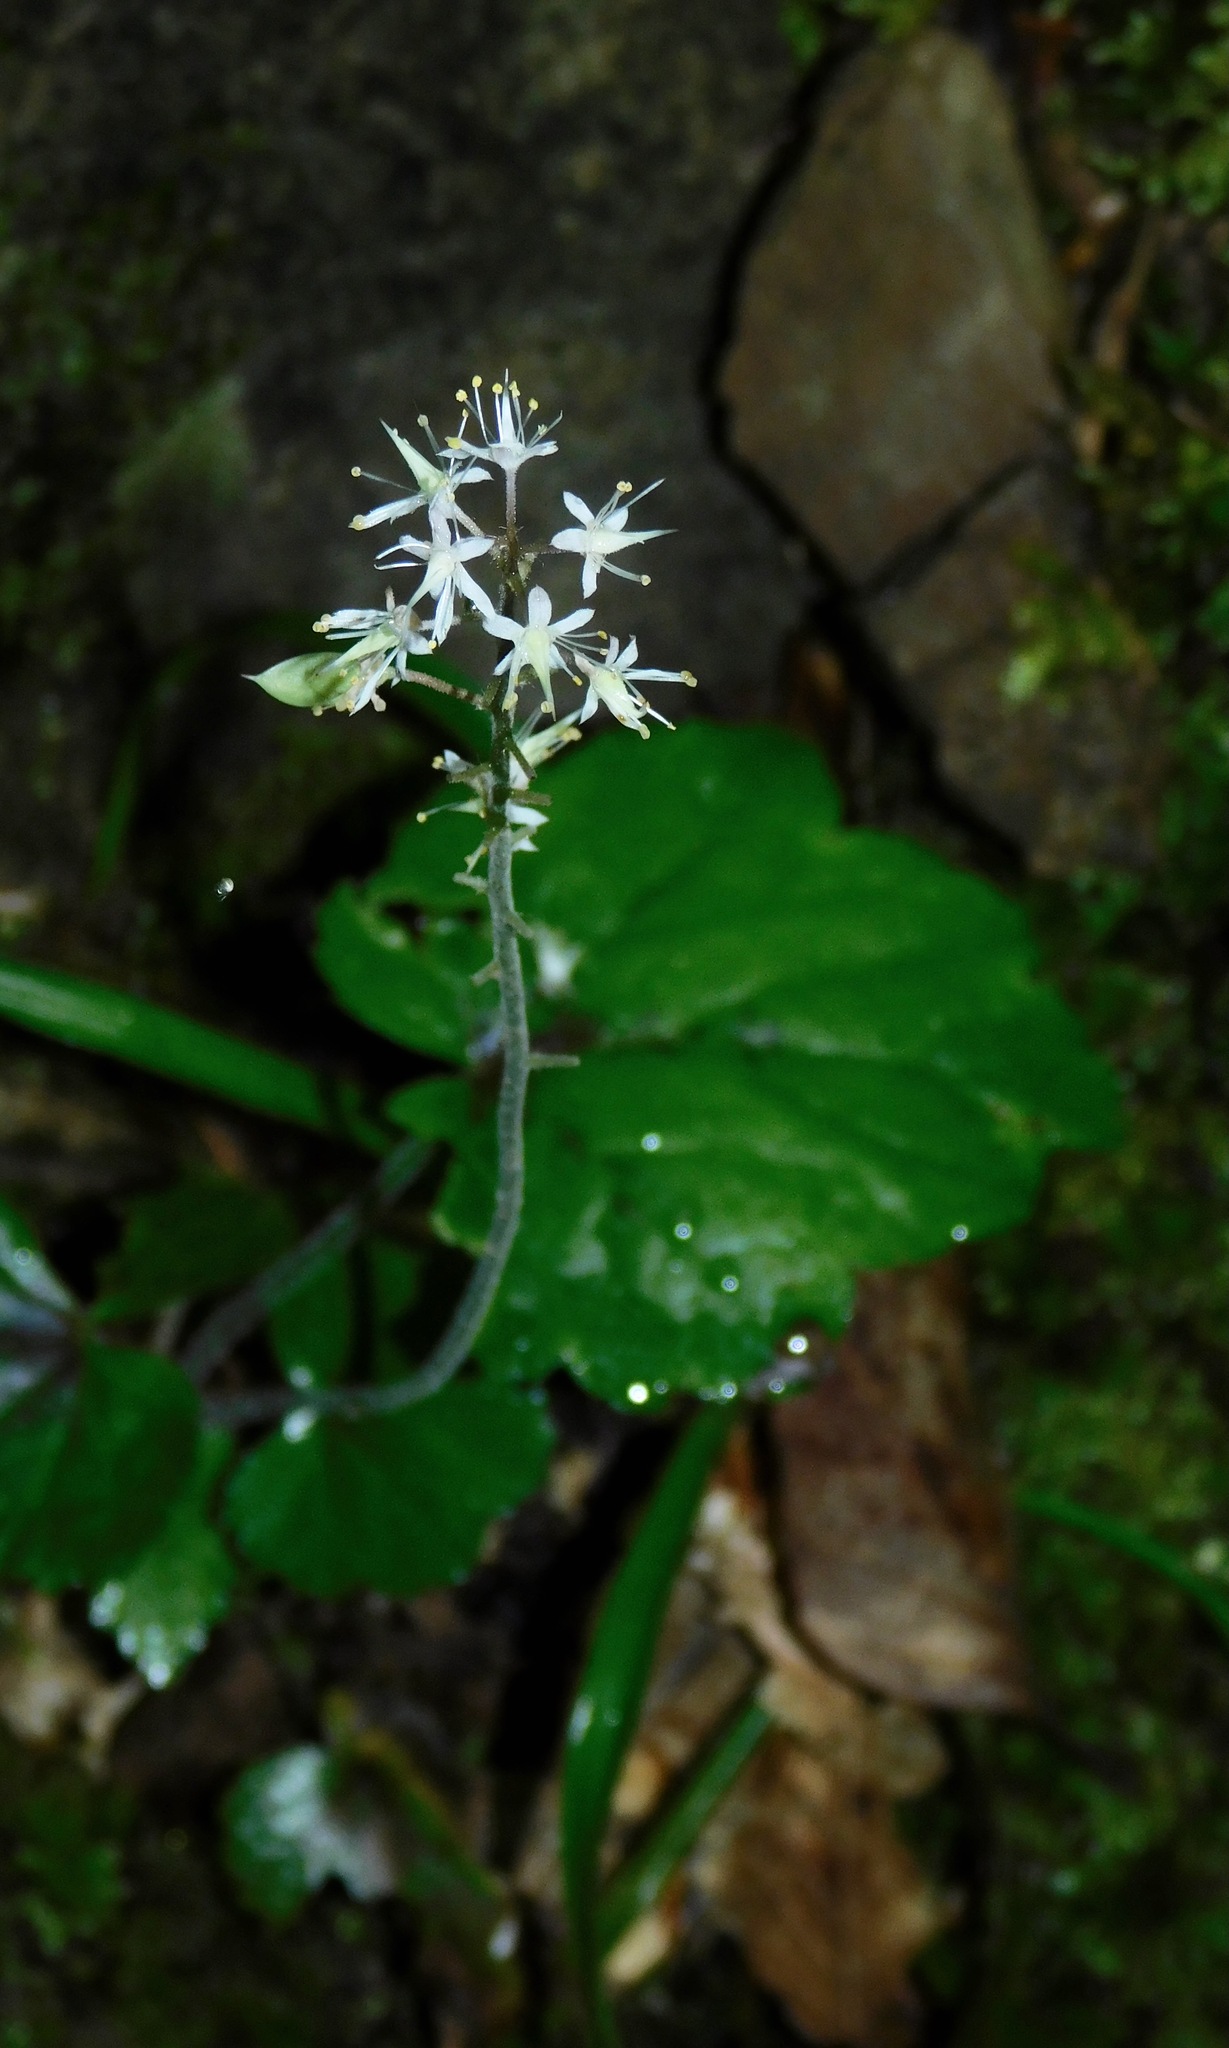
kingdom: Plantae
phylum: Tracheophyta
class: Magnoliopsida
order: Saxifragales
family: Saxifragaceae
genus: Tiarella
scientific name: Tiarella cordifolia
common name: Foamflower
